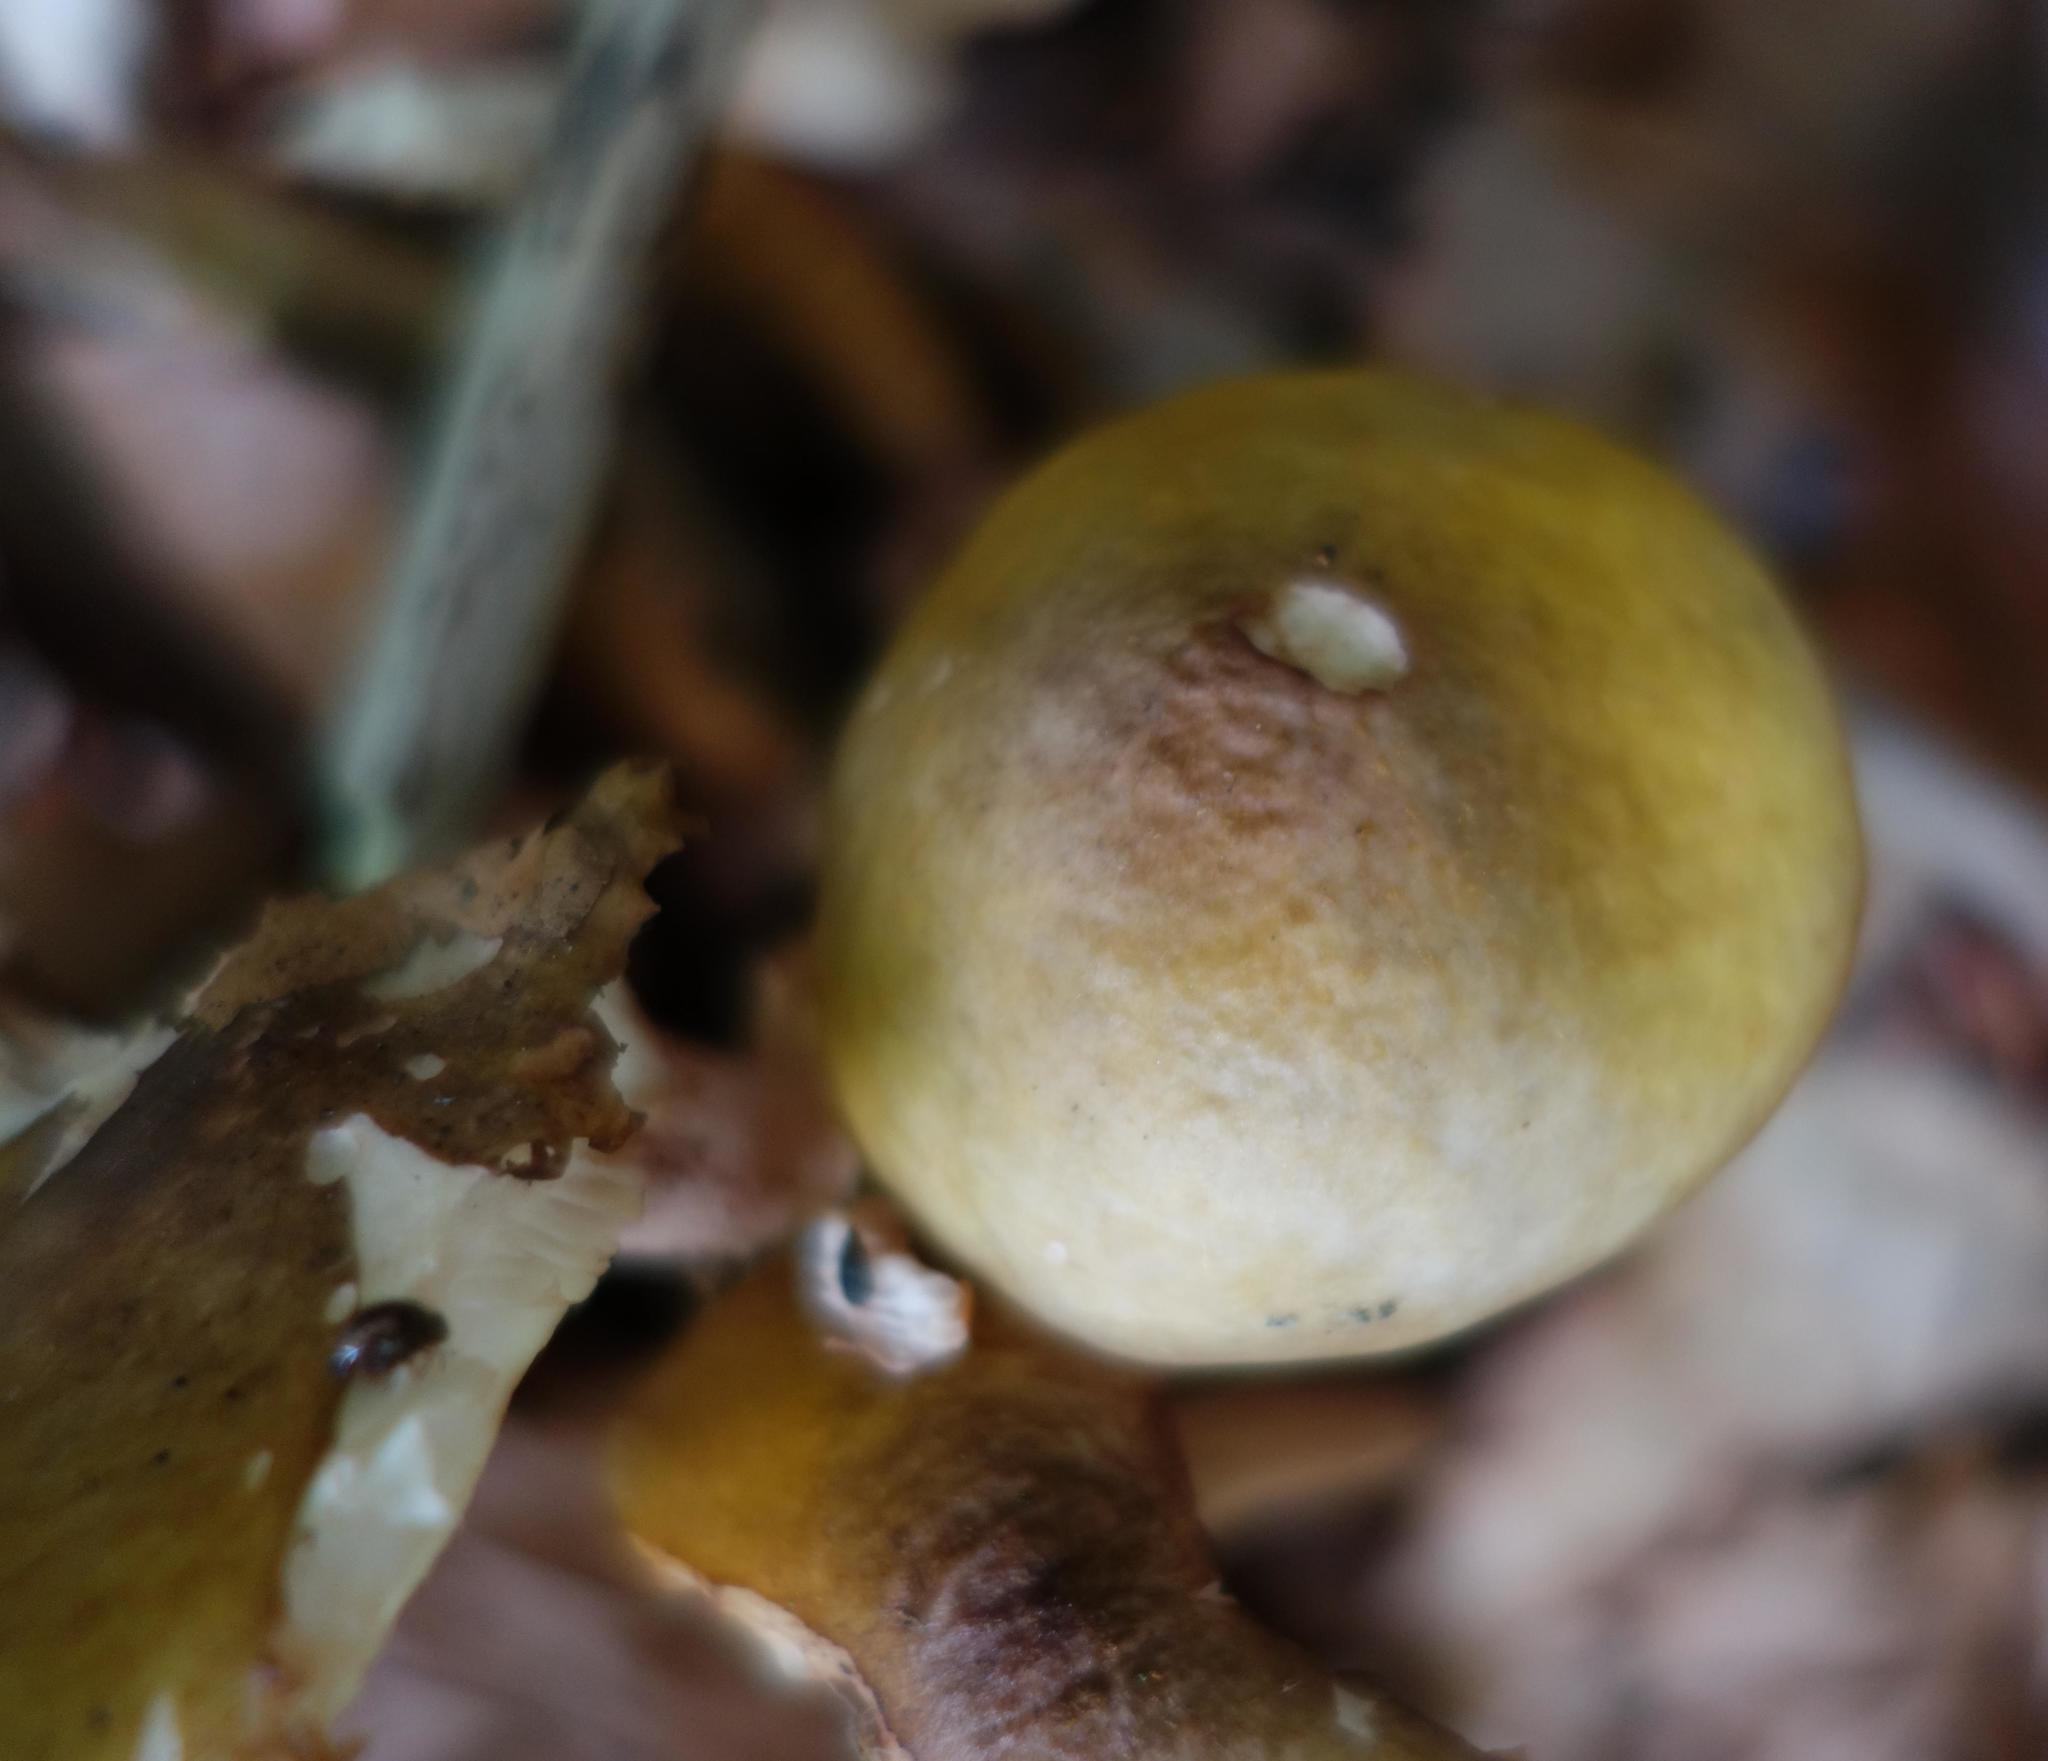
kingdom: Fungi
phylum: Basidiomycota
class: Agaricomycetes
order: Agaricales
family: Physalacriaceae
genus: Armillaria
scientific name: Armillaria mellea
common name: Honey fungus
